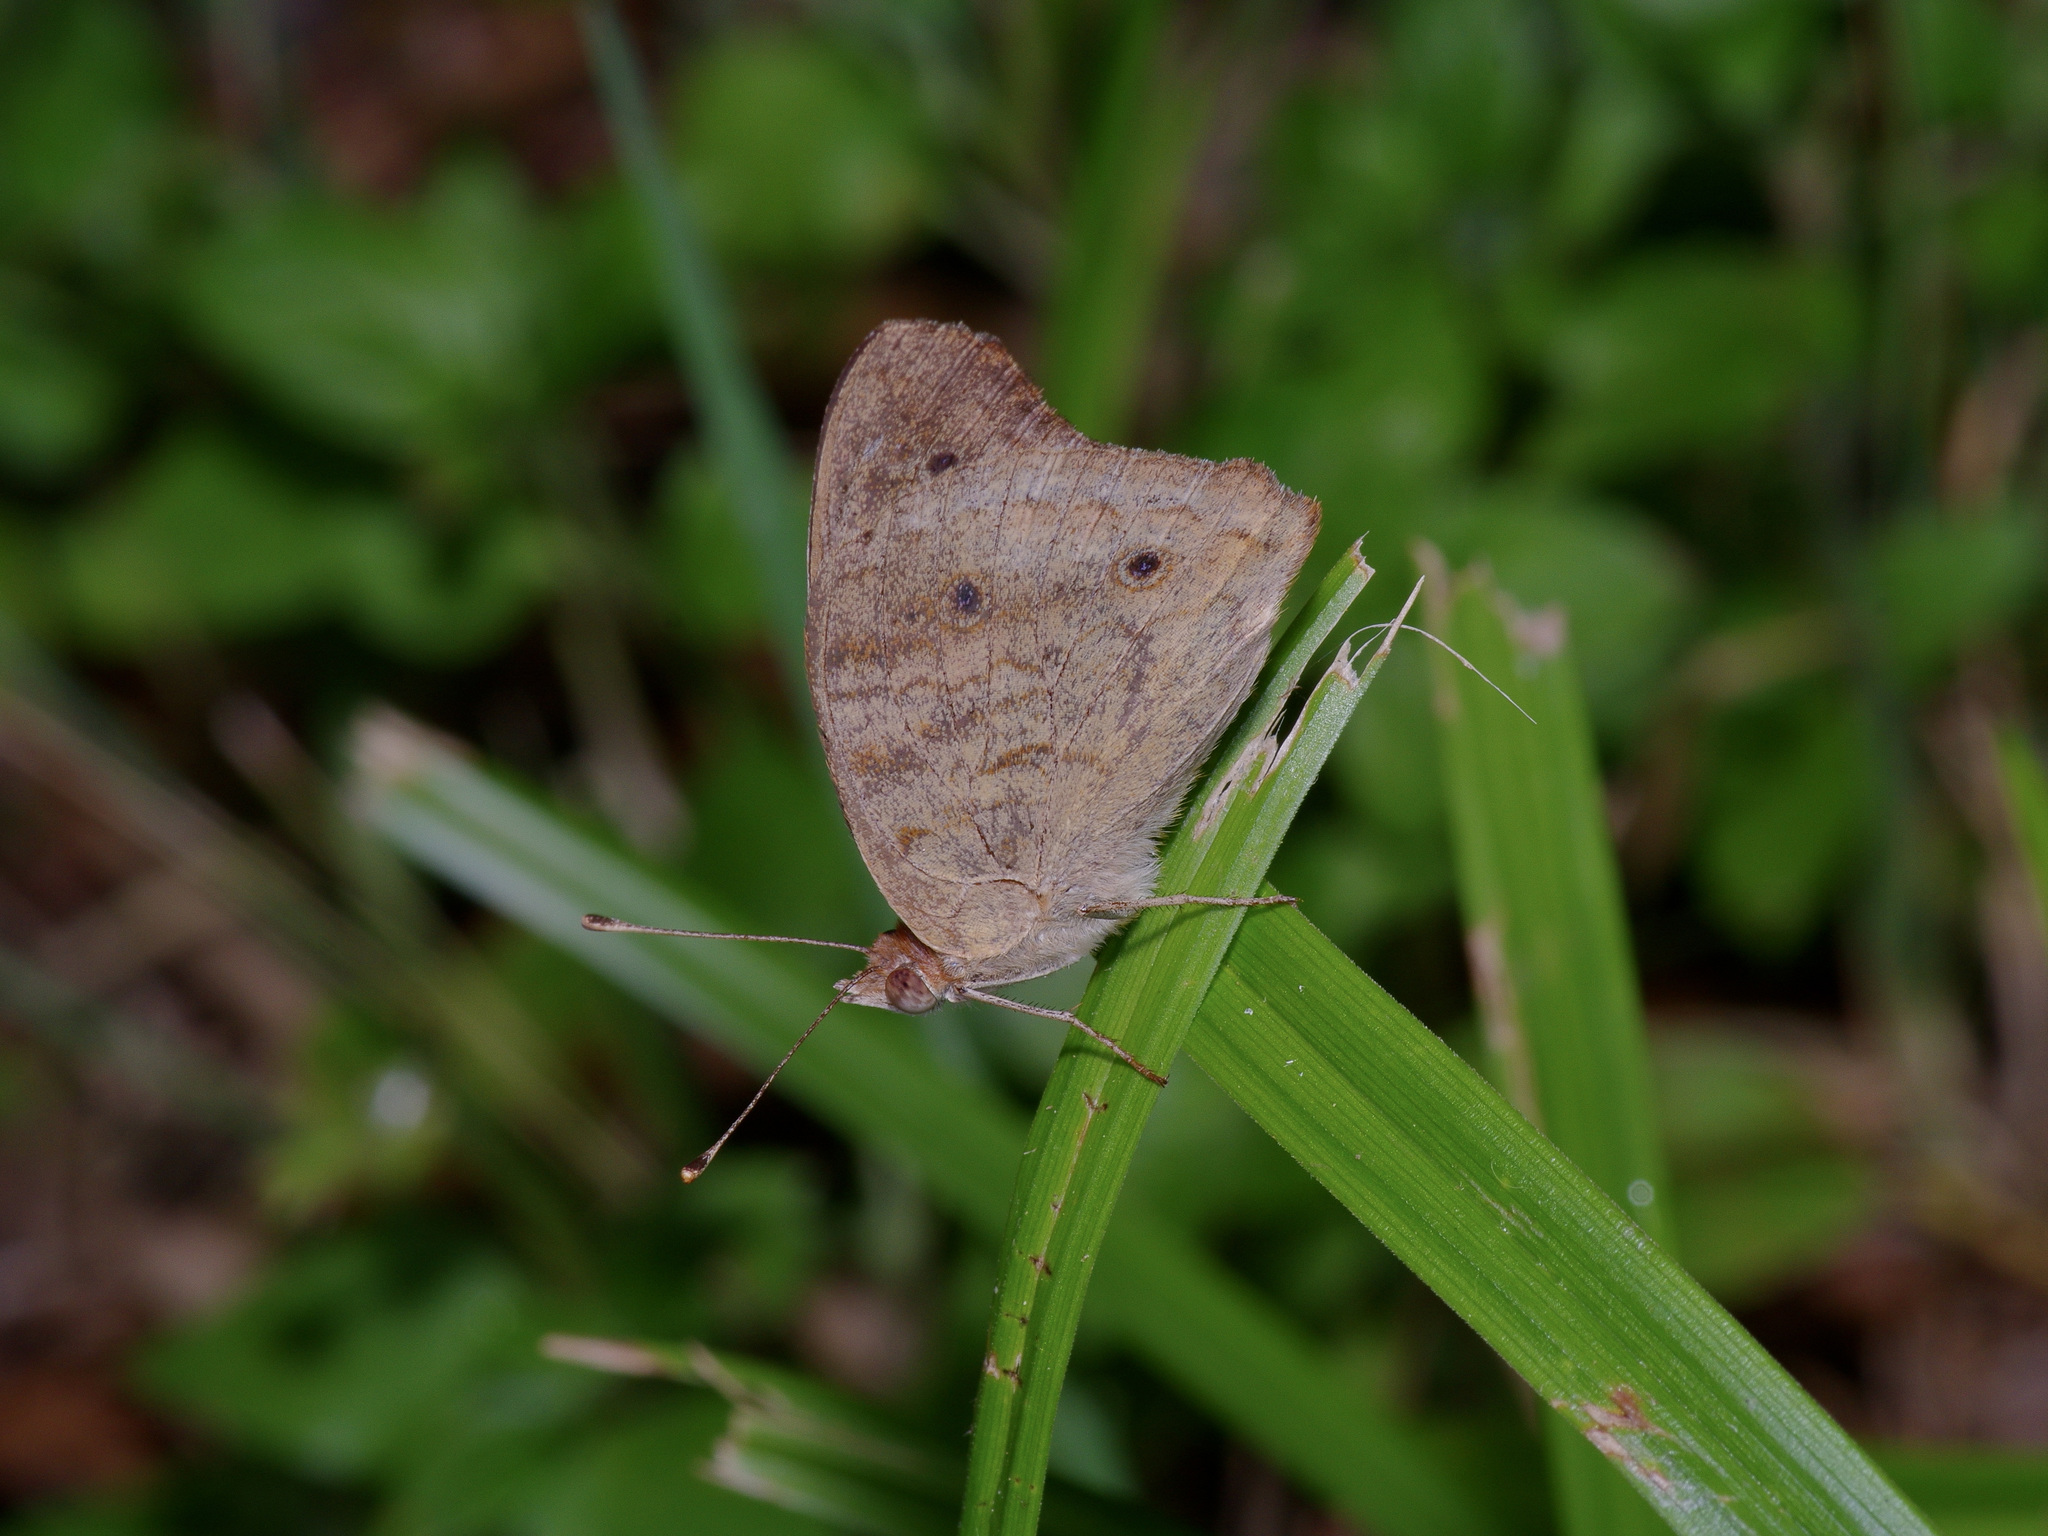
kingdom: Animalia
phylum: Arthropoda
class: Insecta
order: Lepidoptera
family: Nymphalidae
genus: Junonia
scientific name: Junonia coenia
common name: Common buckeye
